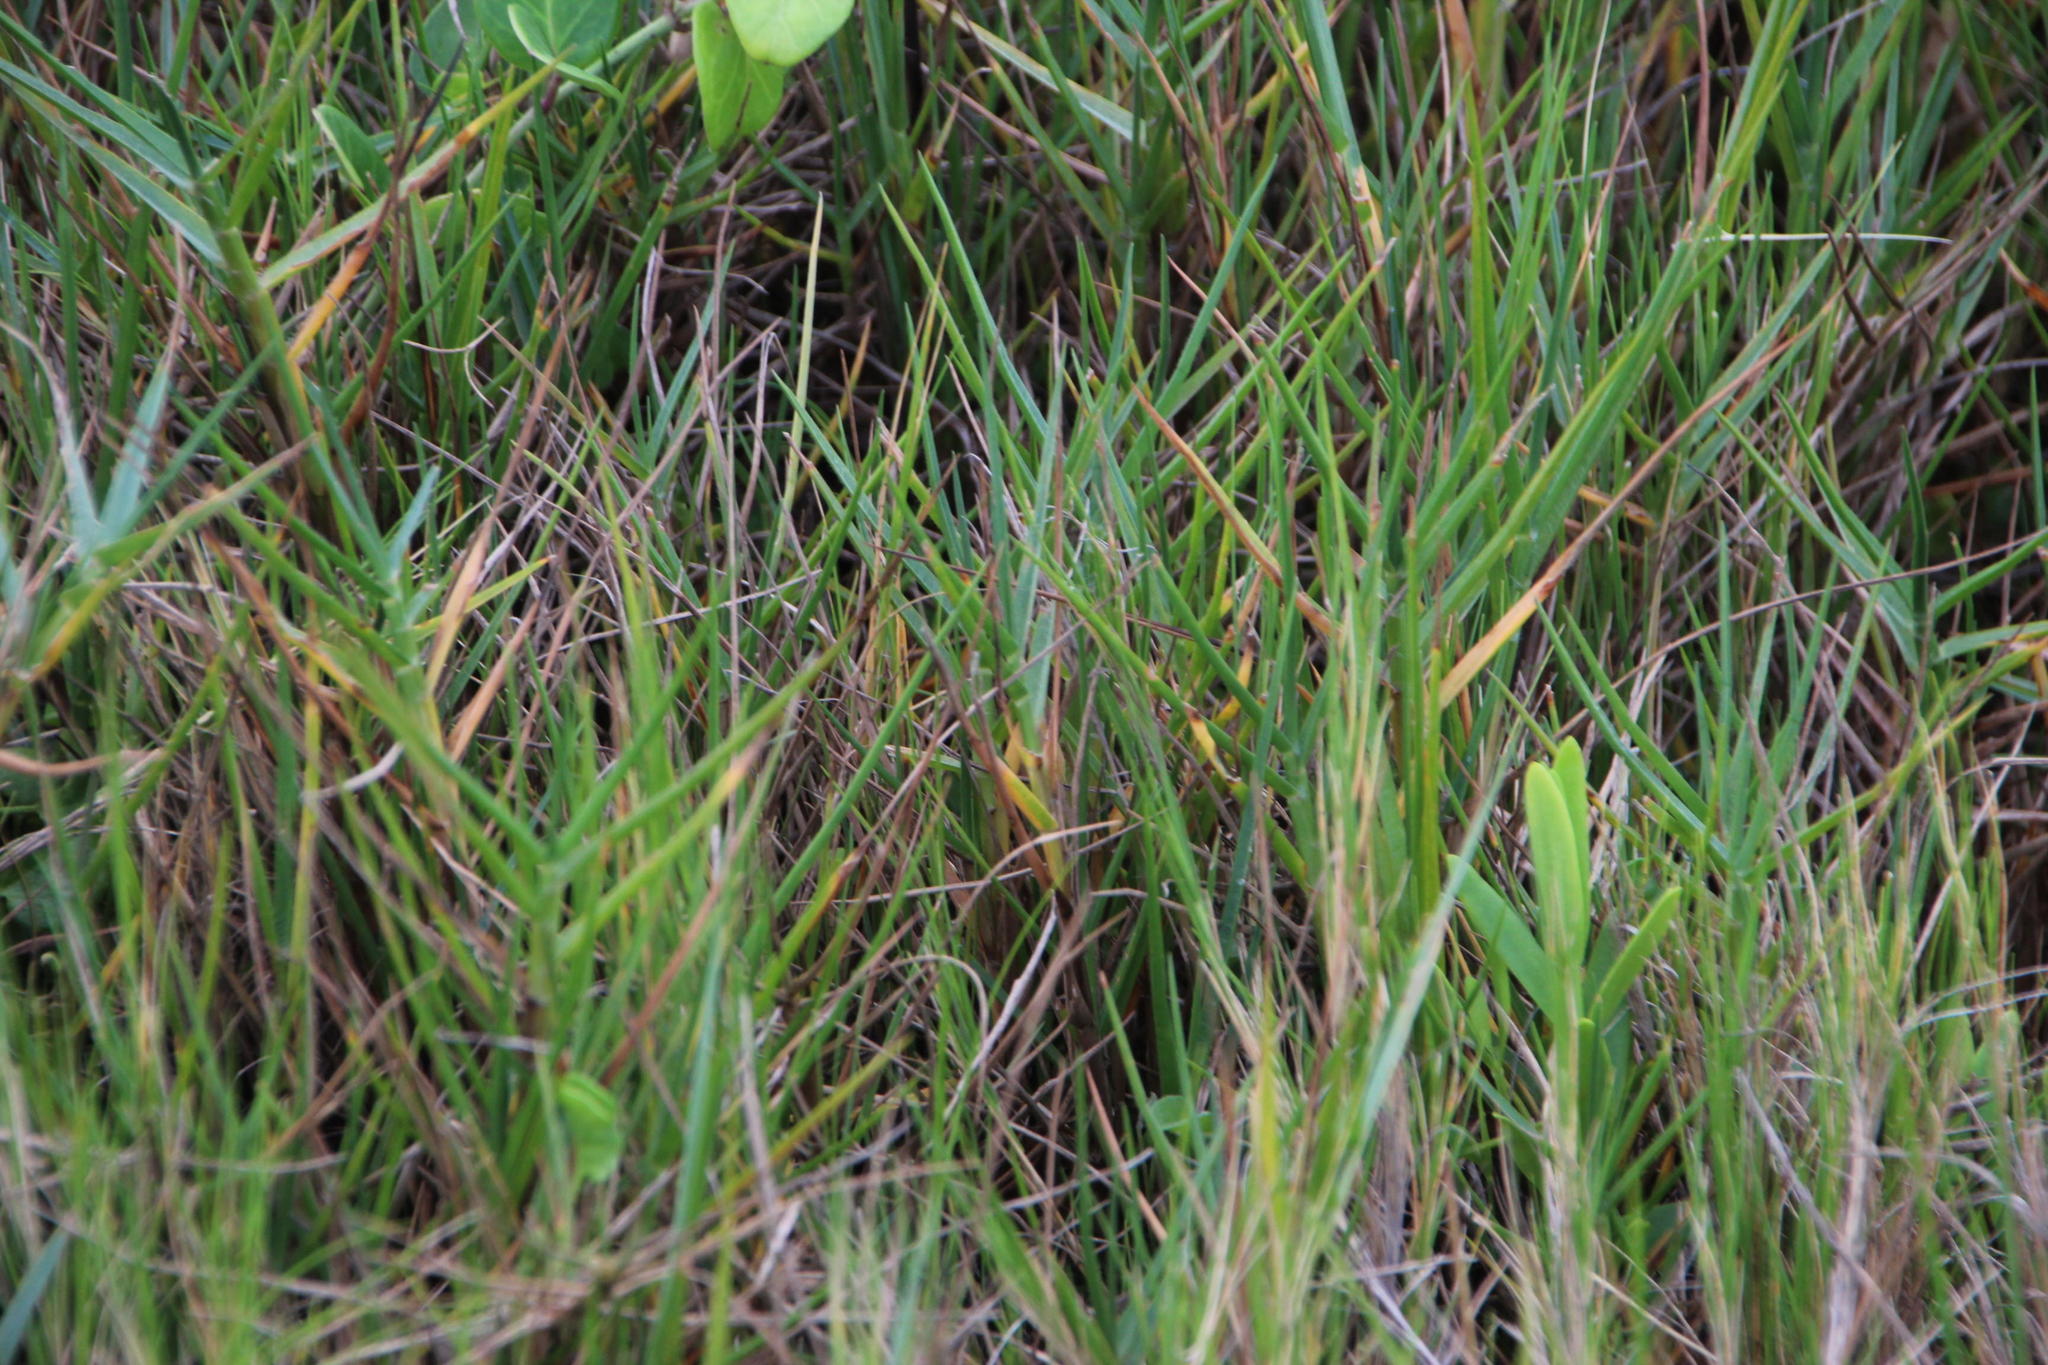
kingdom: Plantae
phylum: Tracheophyta
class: Liliopsida
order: Poales
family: Poaceae
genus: Sporobolus
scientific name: Sporobolus virginicus
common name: Beach dropseed
